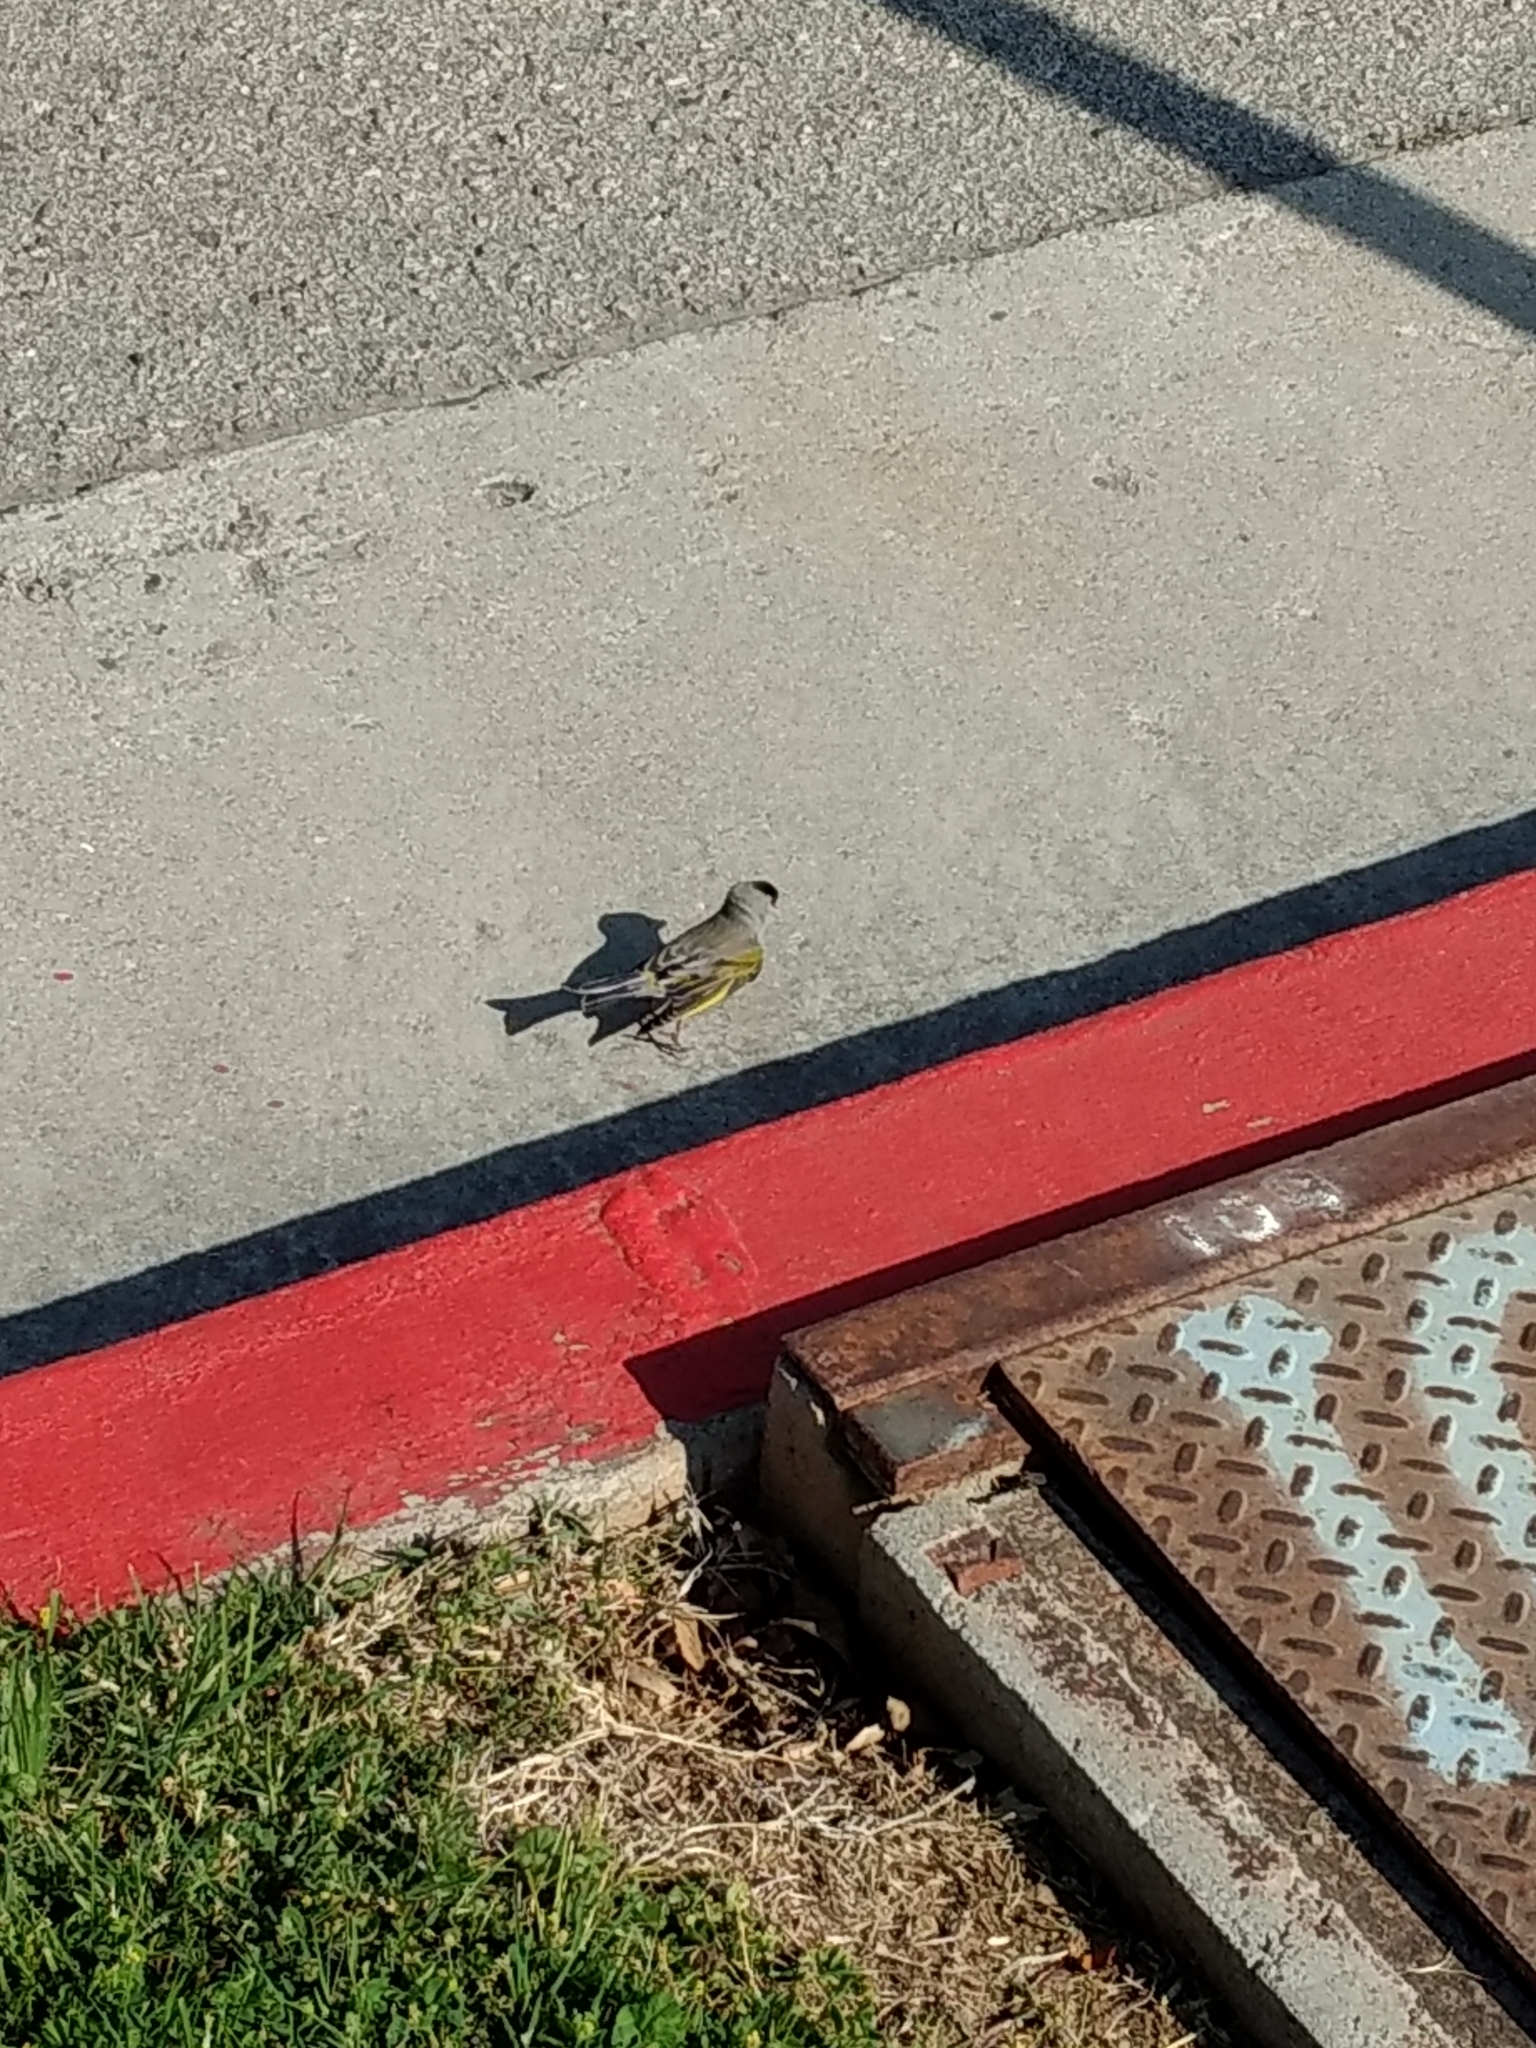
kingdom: Animalia
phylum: Chordata
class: Aves
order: Passeriformes
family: Fringillidae
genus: Spinus
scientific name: Spinus lawrencei
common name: Lawrence's goldfinch
